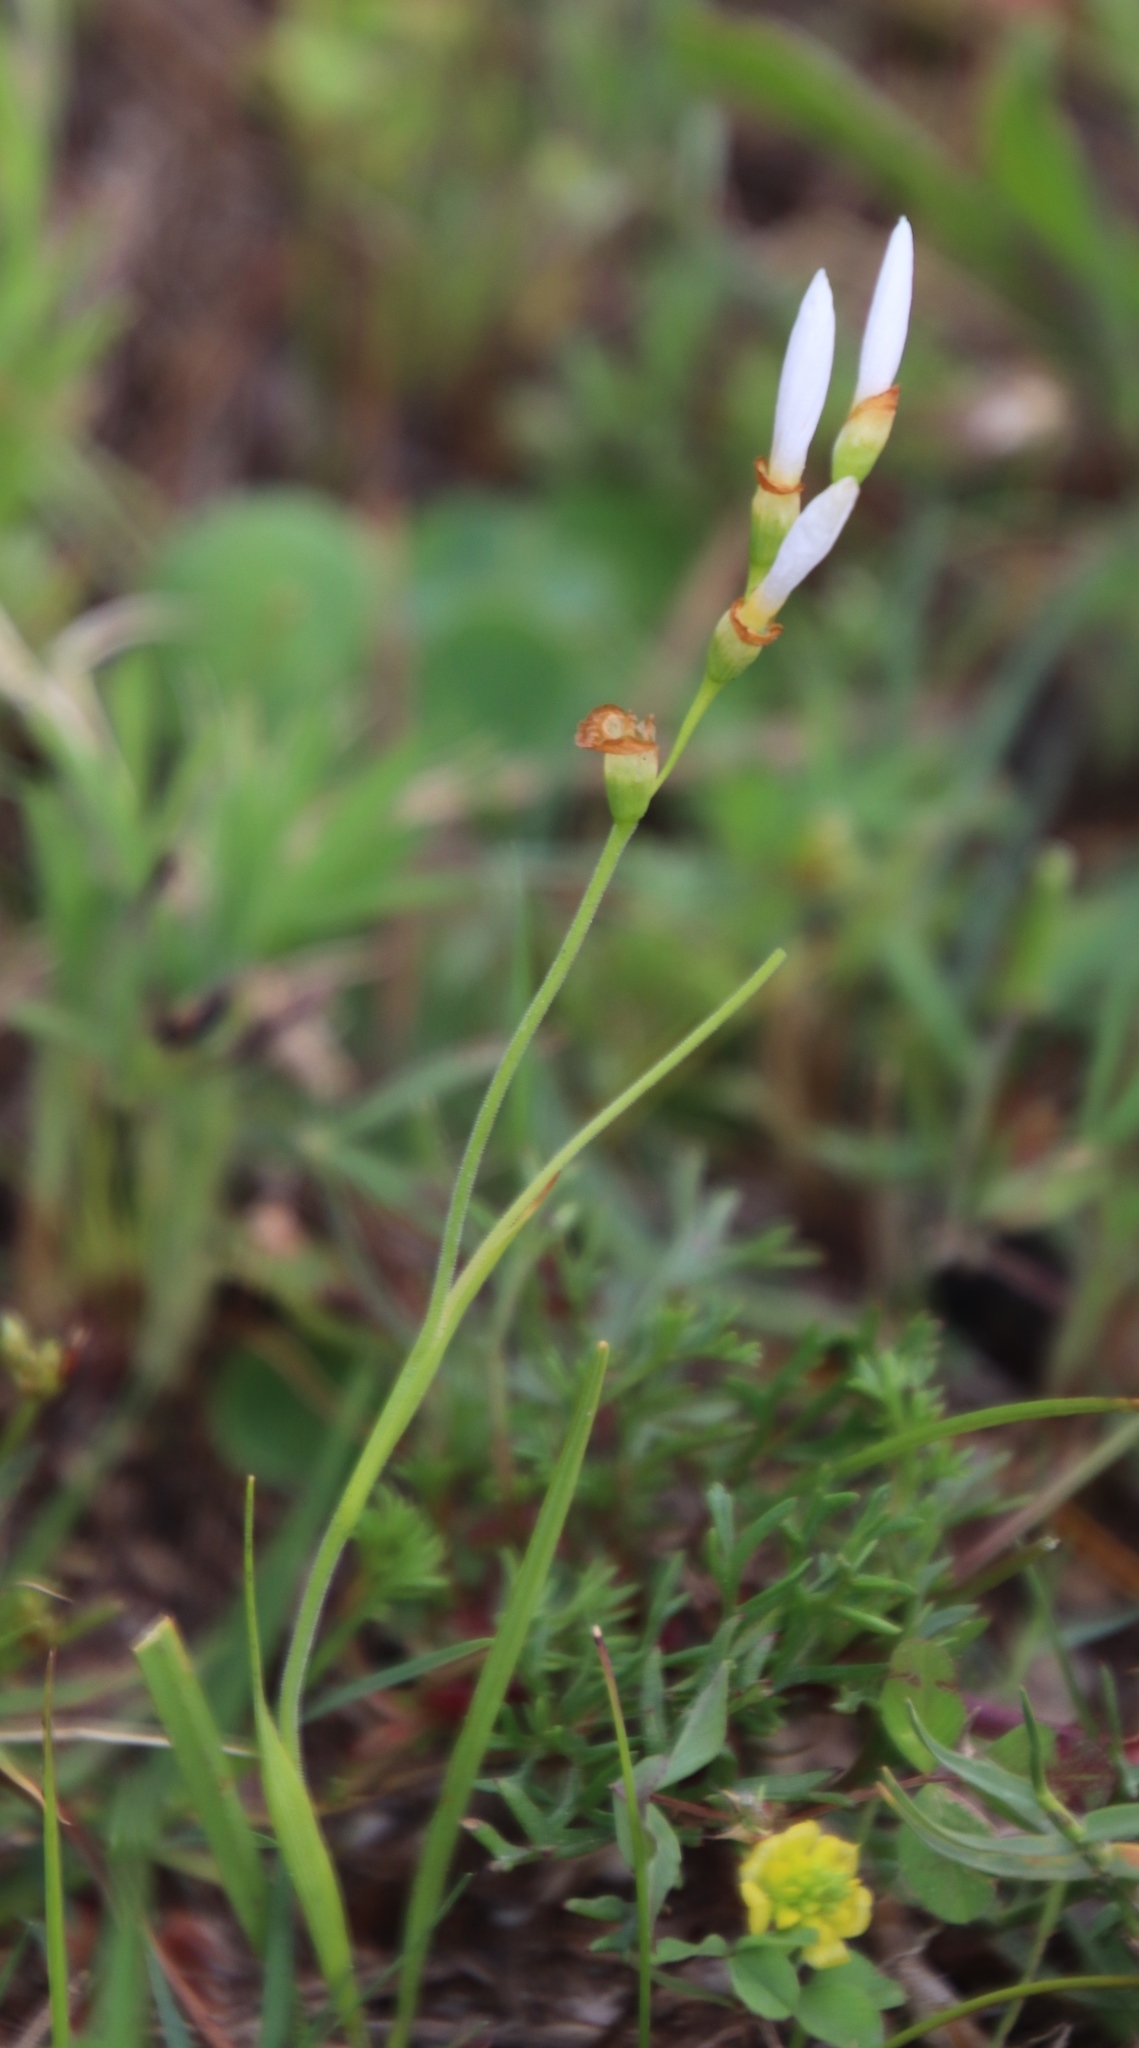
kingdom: Plantae
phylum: Tracheophyta
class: Liliopsida
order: Asparagales
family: Iridaceae
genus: Geissorhiza
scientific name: Geissorhiza aspera
